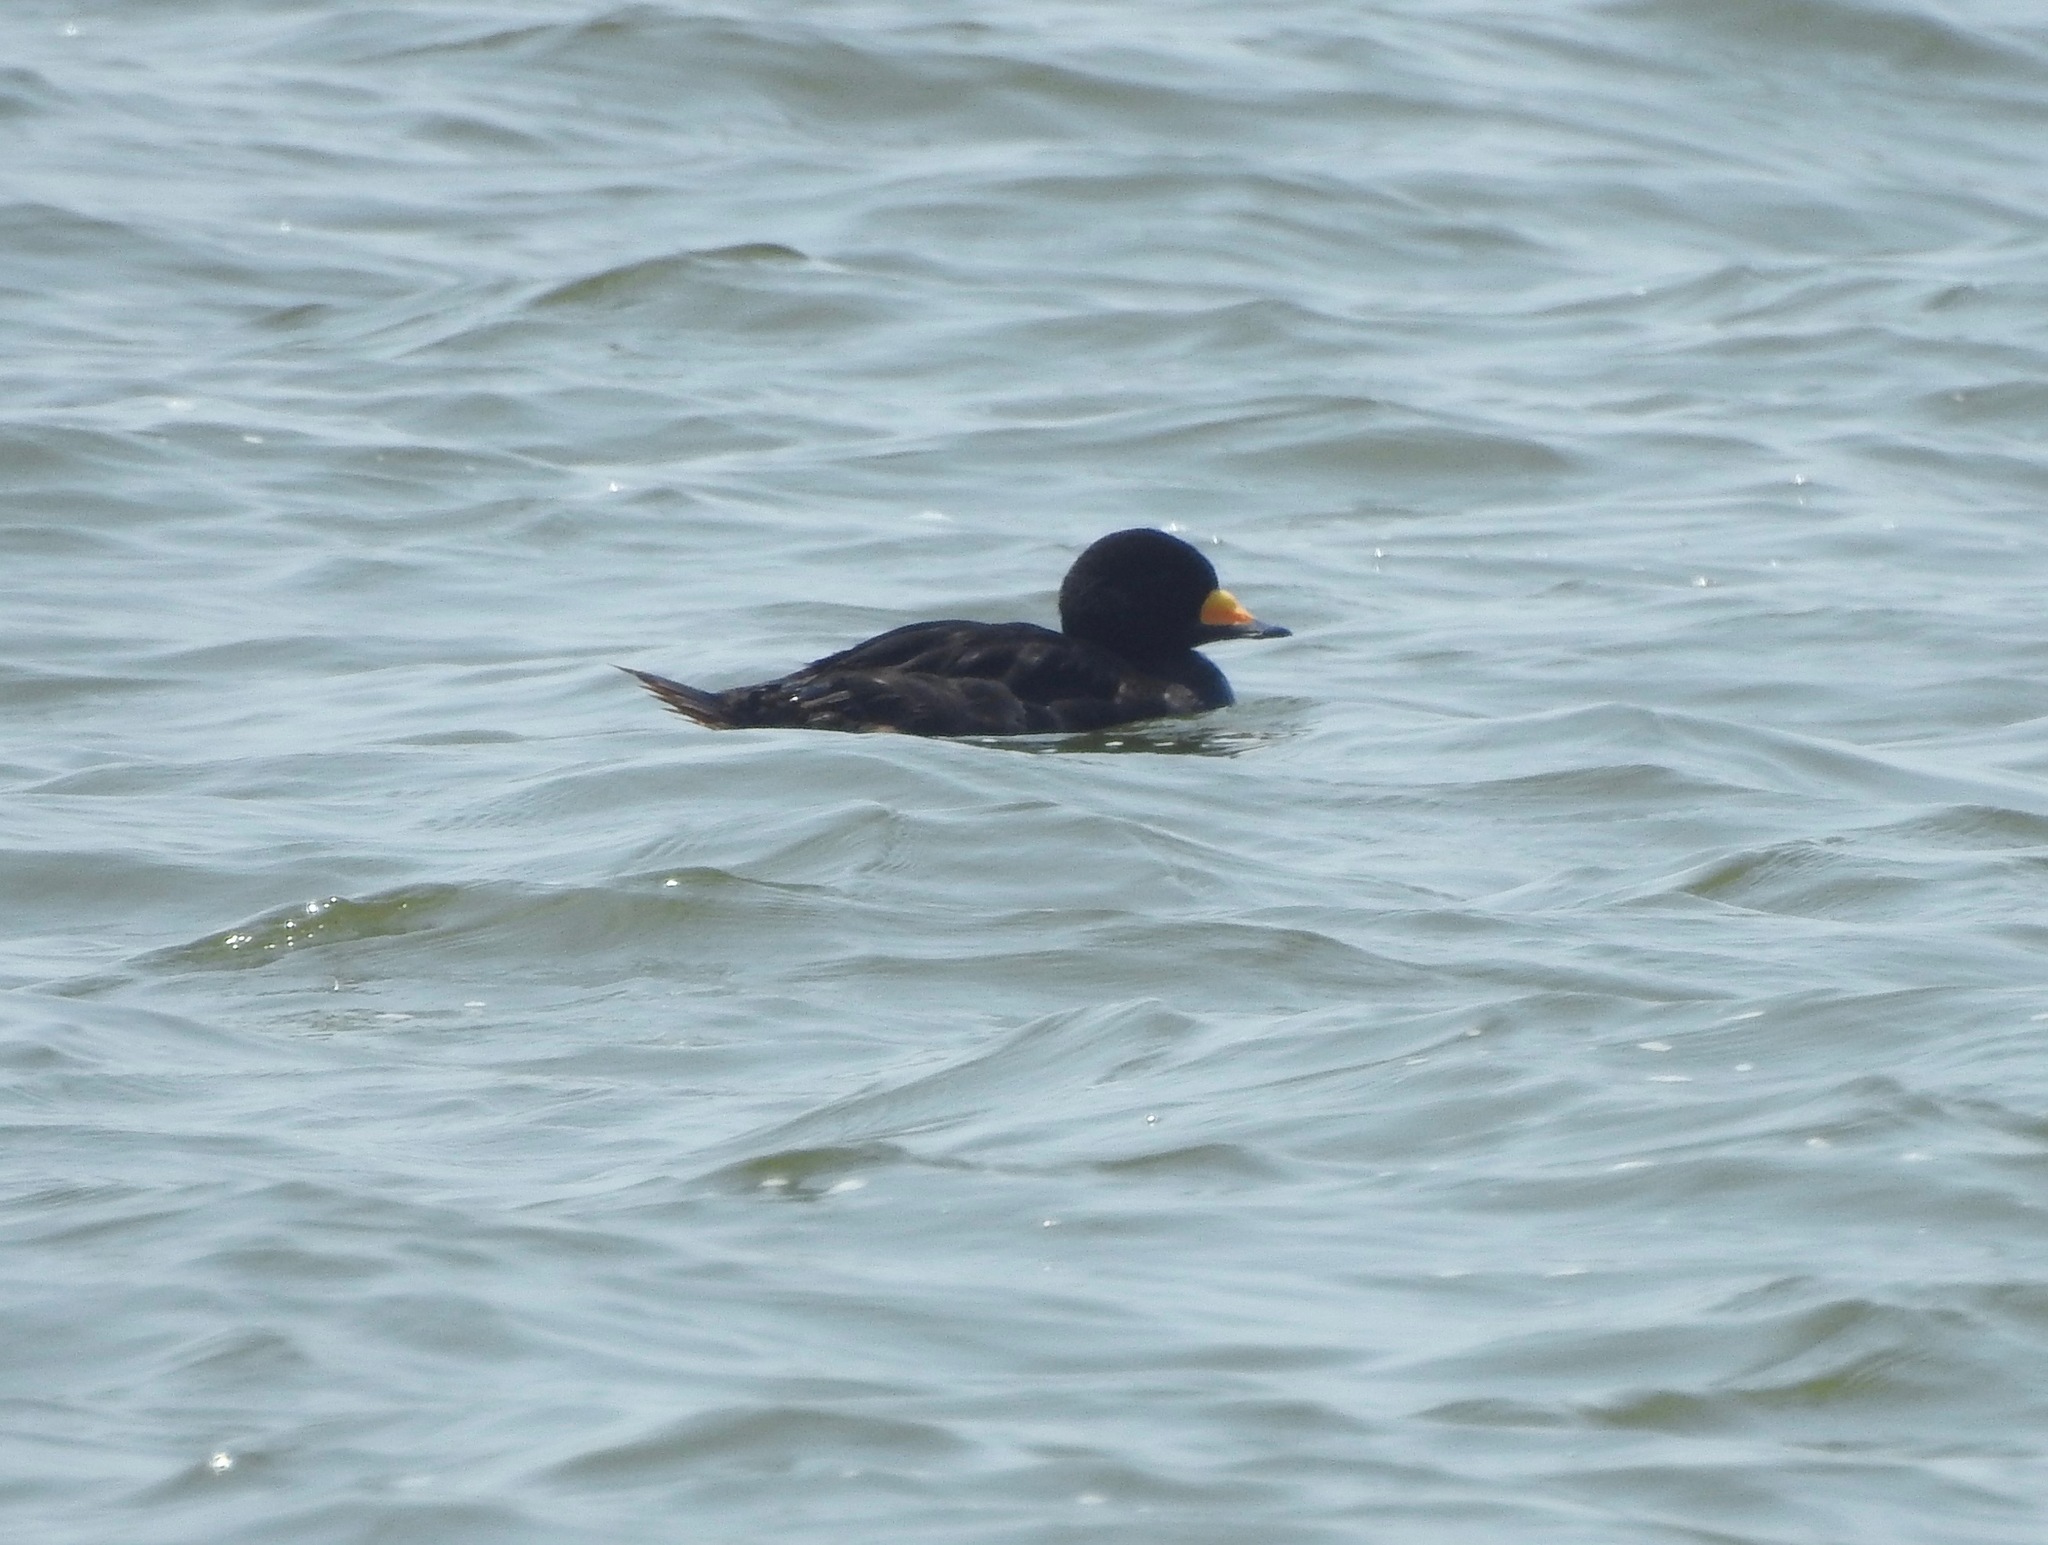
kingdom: Animalia
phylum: Chordata
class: Aves
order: Anseriformes
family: Anatidae
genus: Melanitta
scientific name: Melanitta americana
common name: Black scoter
